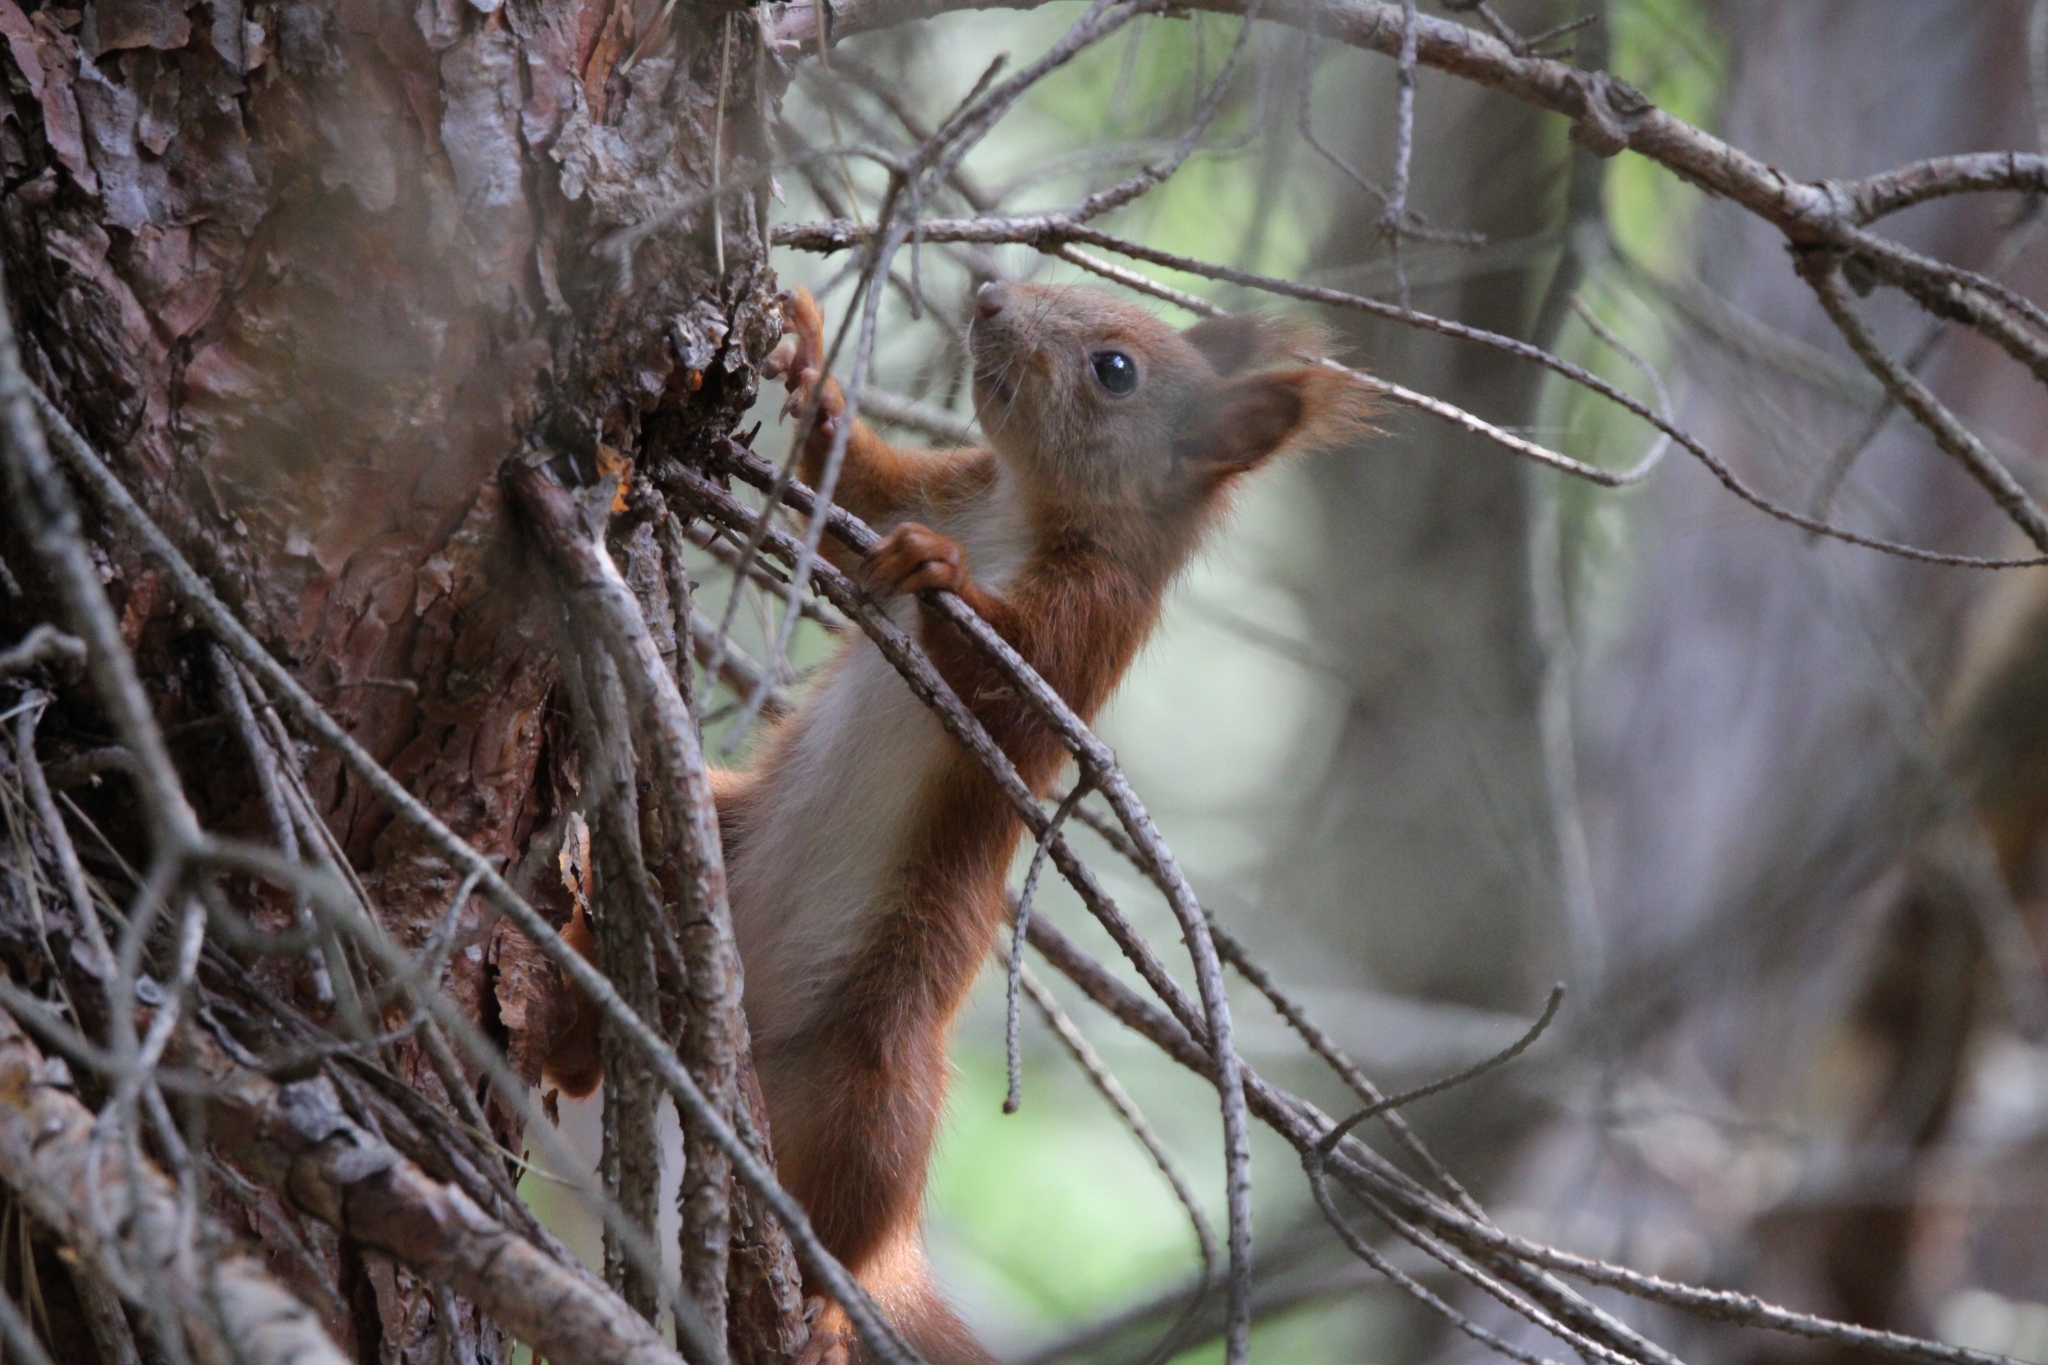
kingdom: Animalia
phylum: Chordata
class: Mammalia
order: Rodentia
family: Sciuridae
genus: Sciurus
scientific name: Sciurus vulgaris
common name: Eurasian red squirrel
